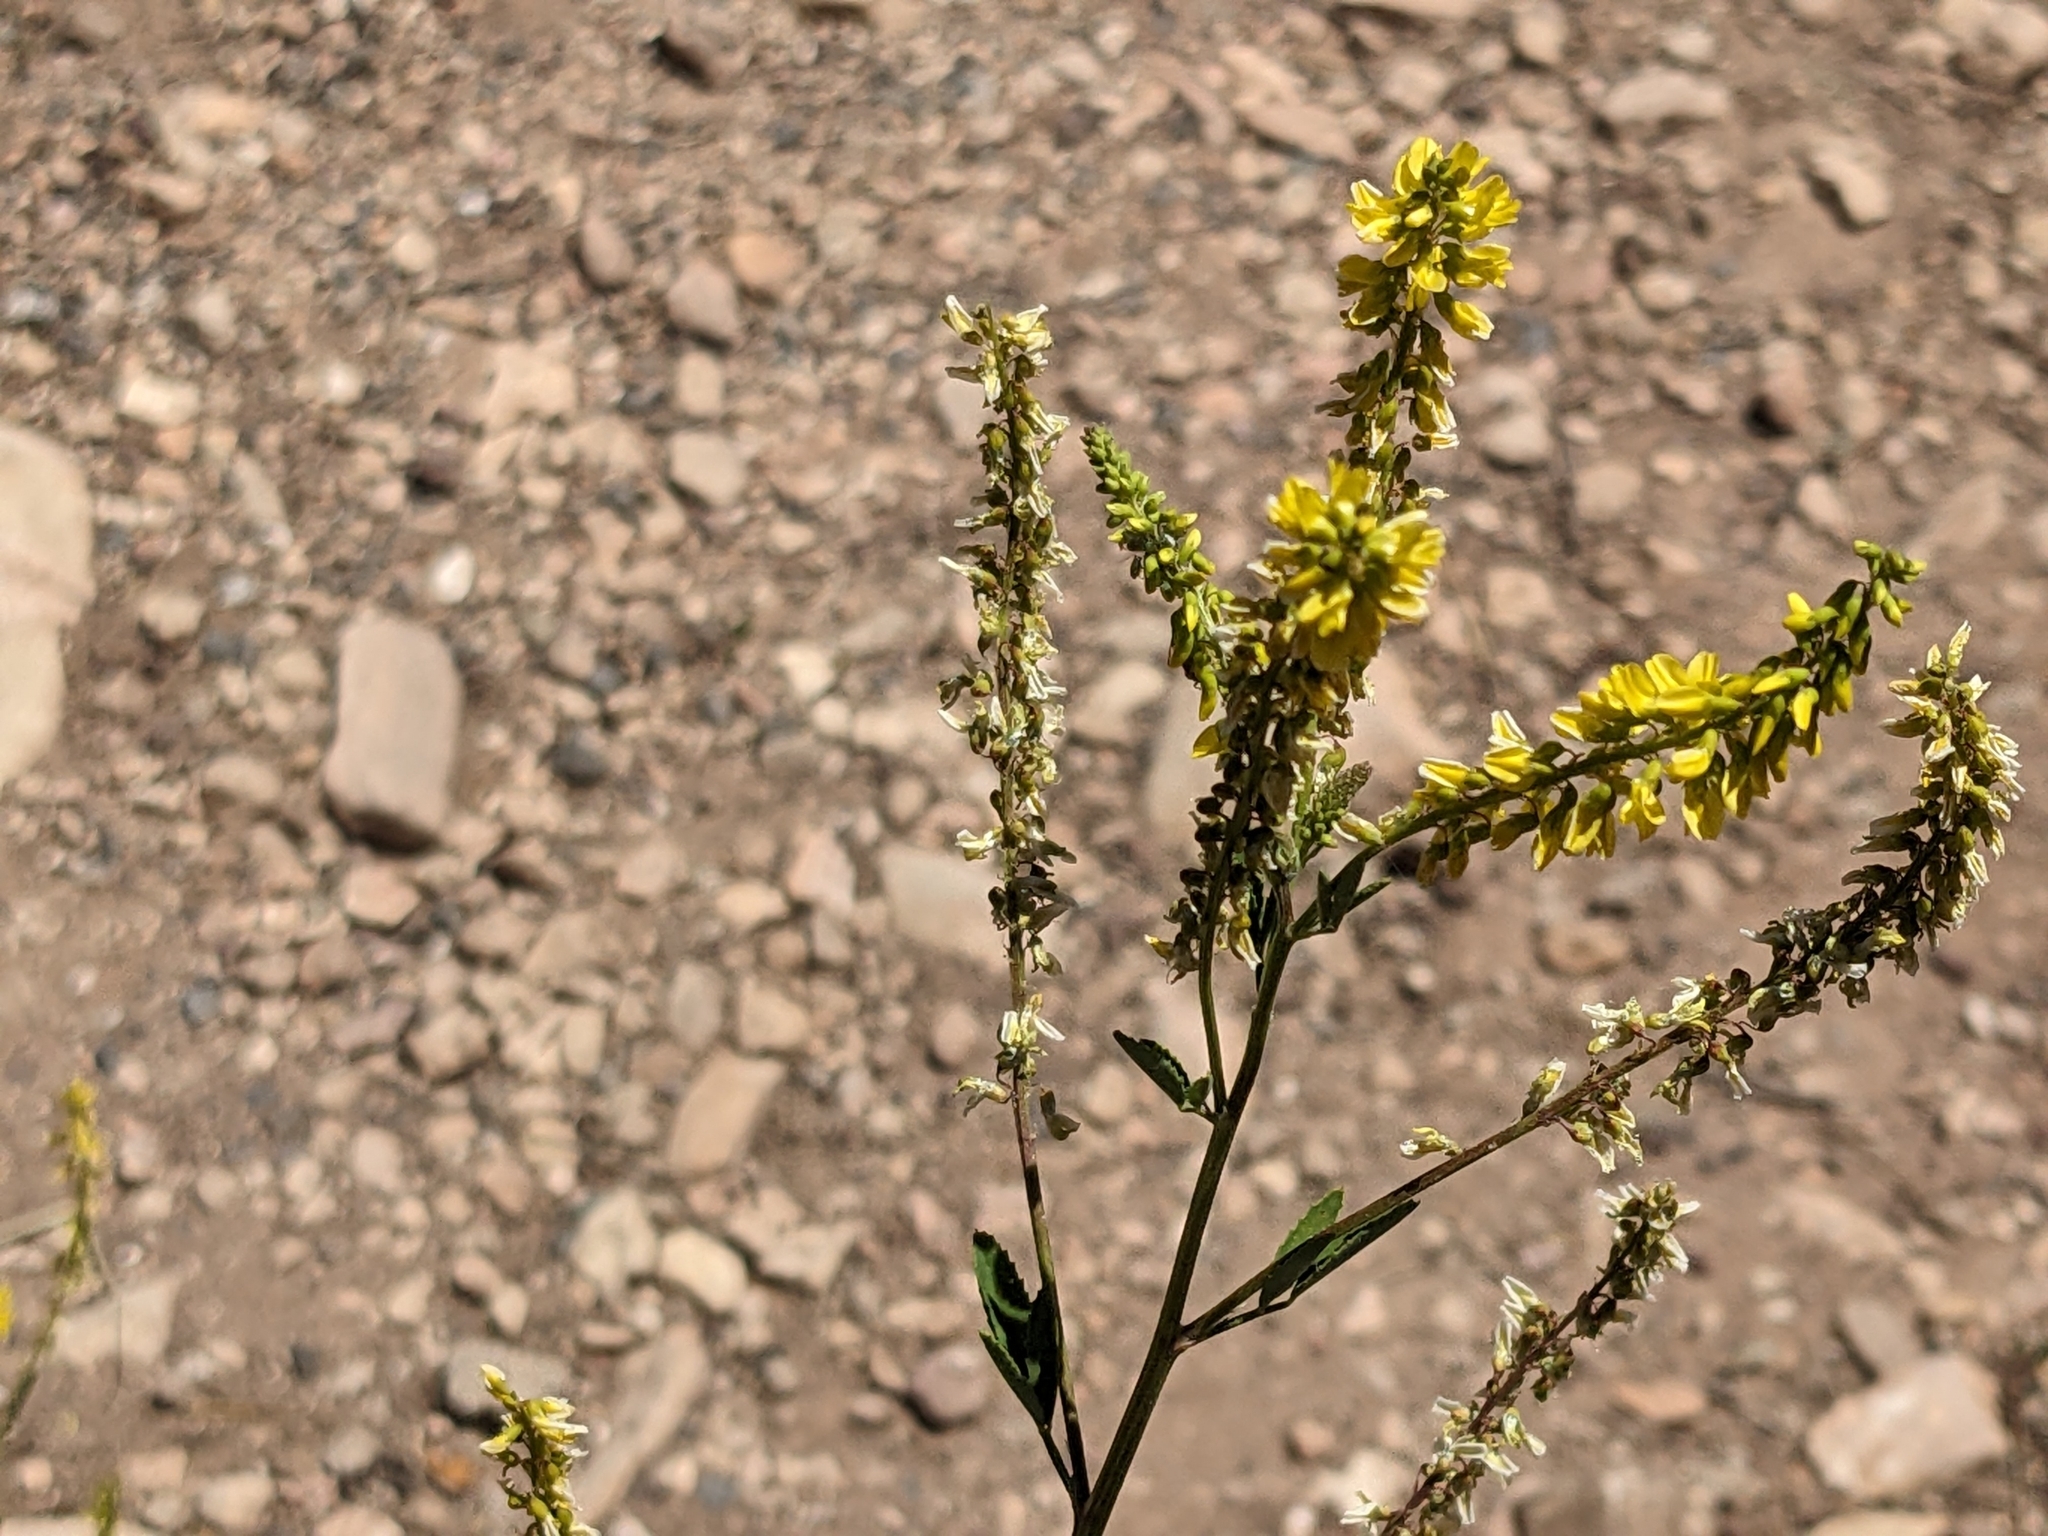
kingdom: Plantae
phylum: Tracheophyta
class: Magnoliopsida
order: Fabales
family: Fabaceae
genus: Melilotus
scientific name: Melilotus officinalis
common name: Sweetclover
